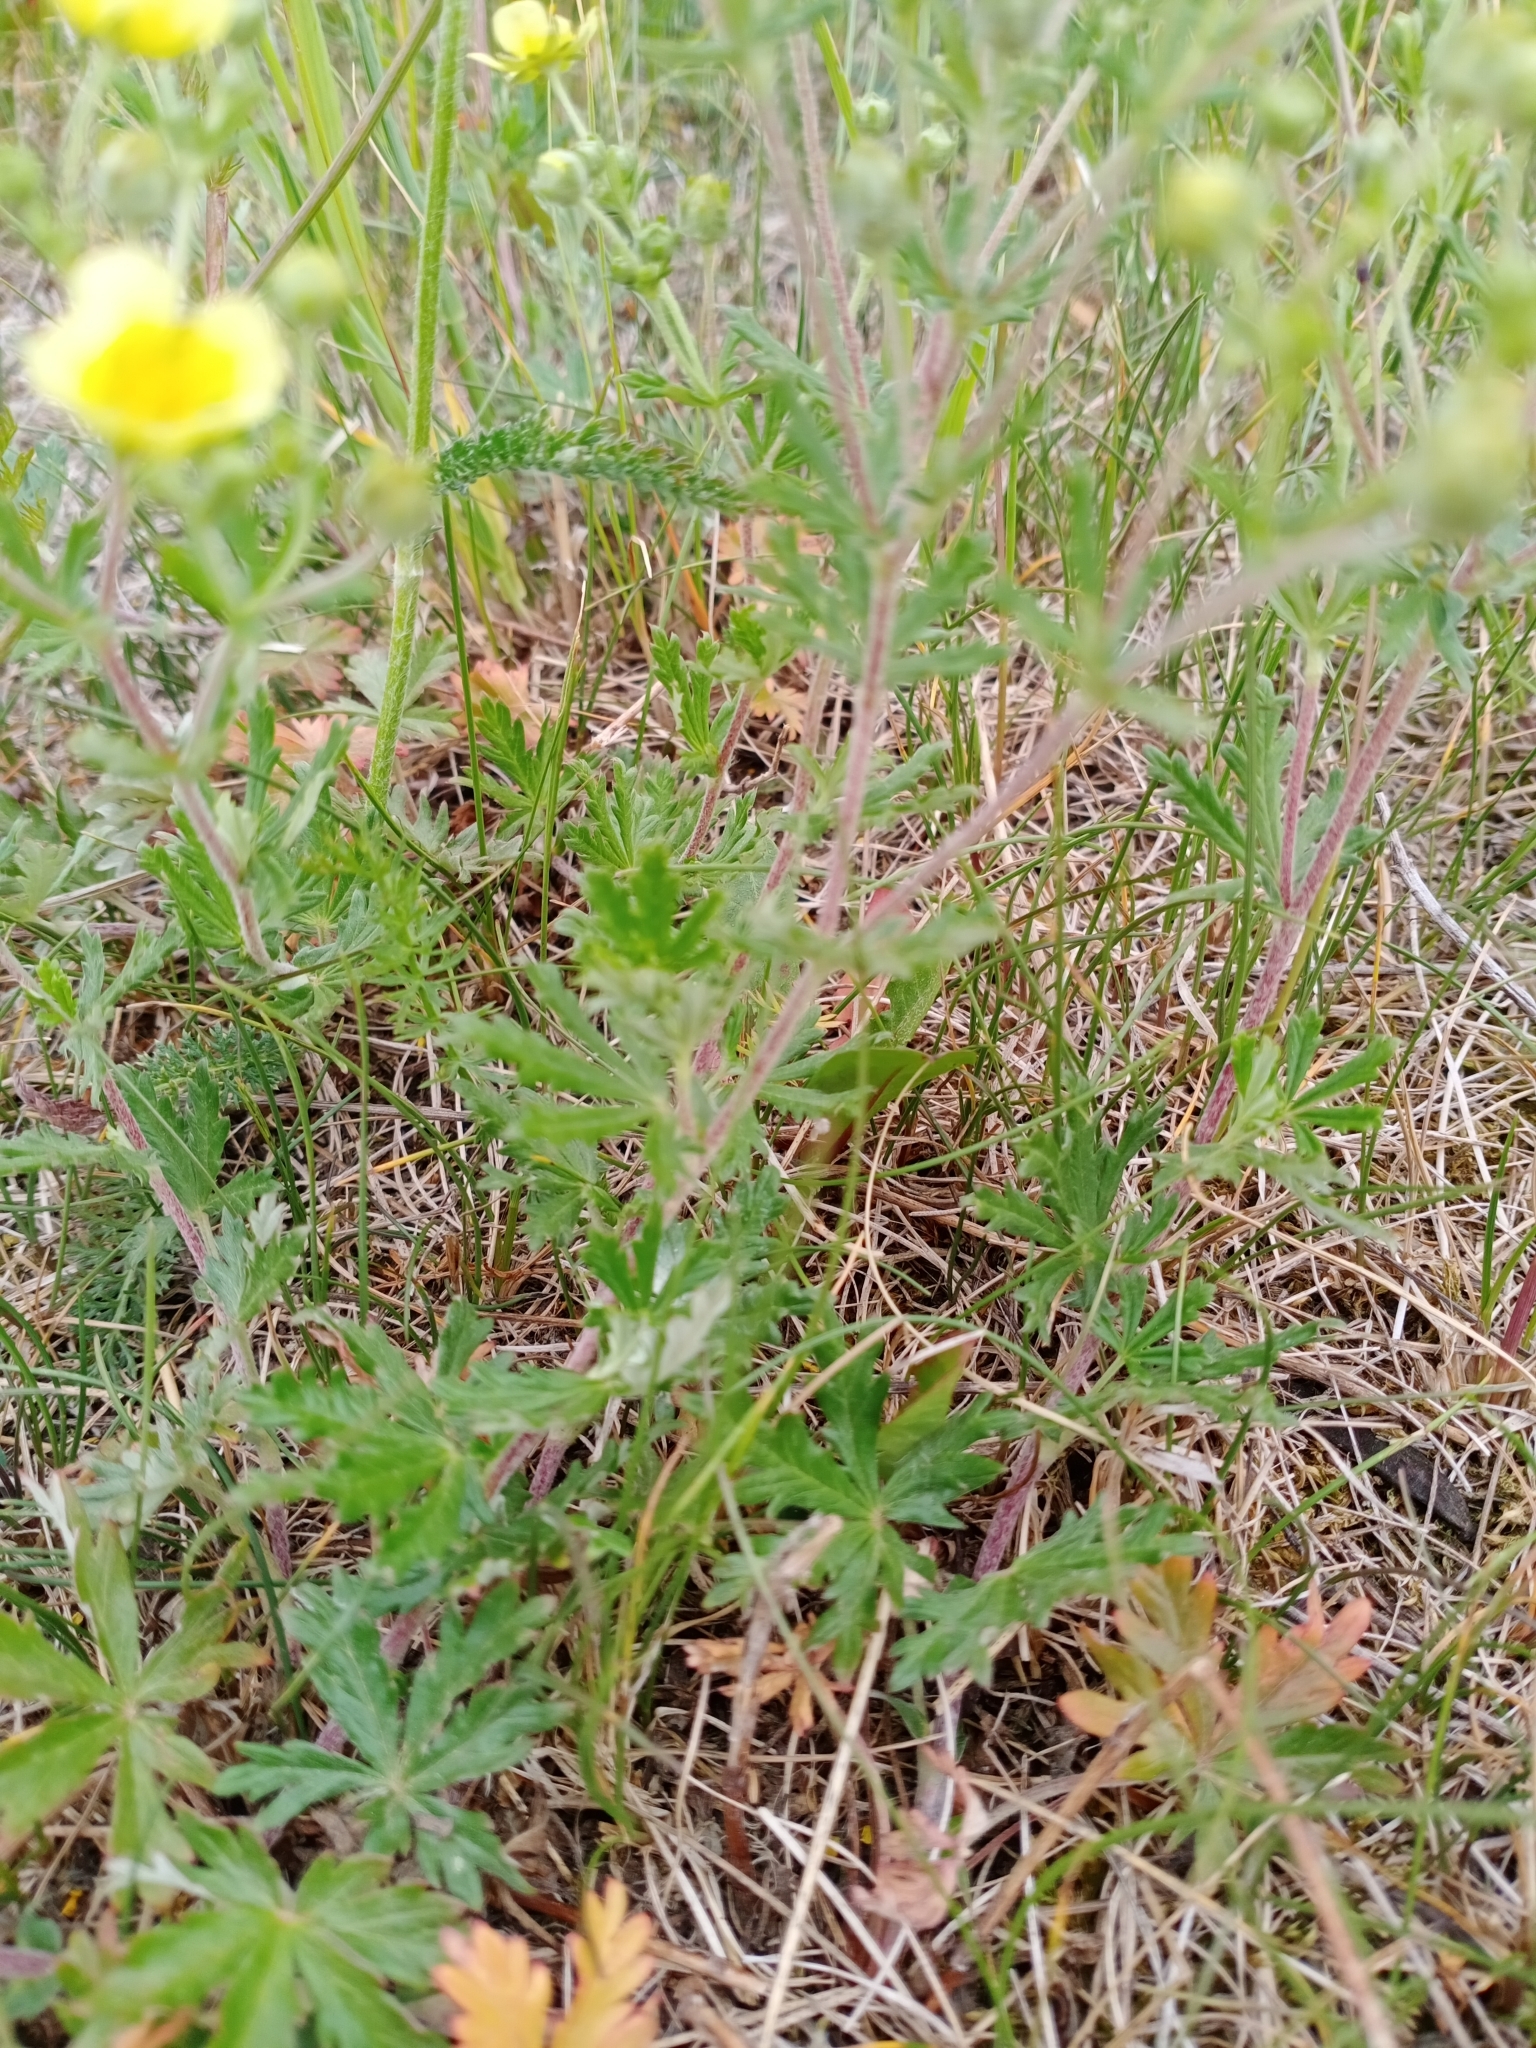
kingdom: Plantae
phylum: Tracheophyta
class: Magnoliopsida
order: Rosales
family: Rosaceae
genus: Potentilla
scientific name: Potentilla argentea
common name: Hoary cinquefoil
